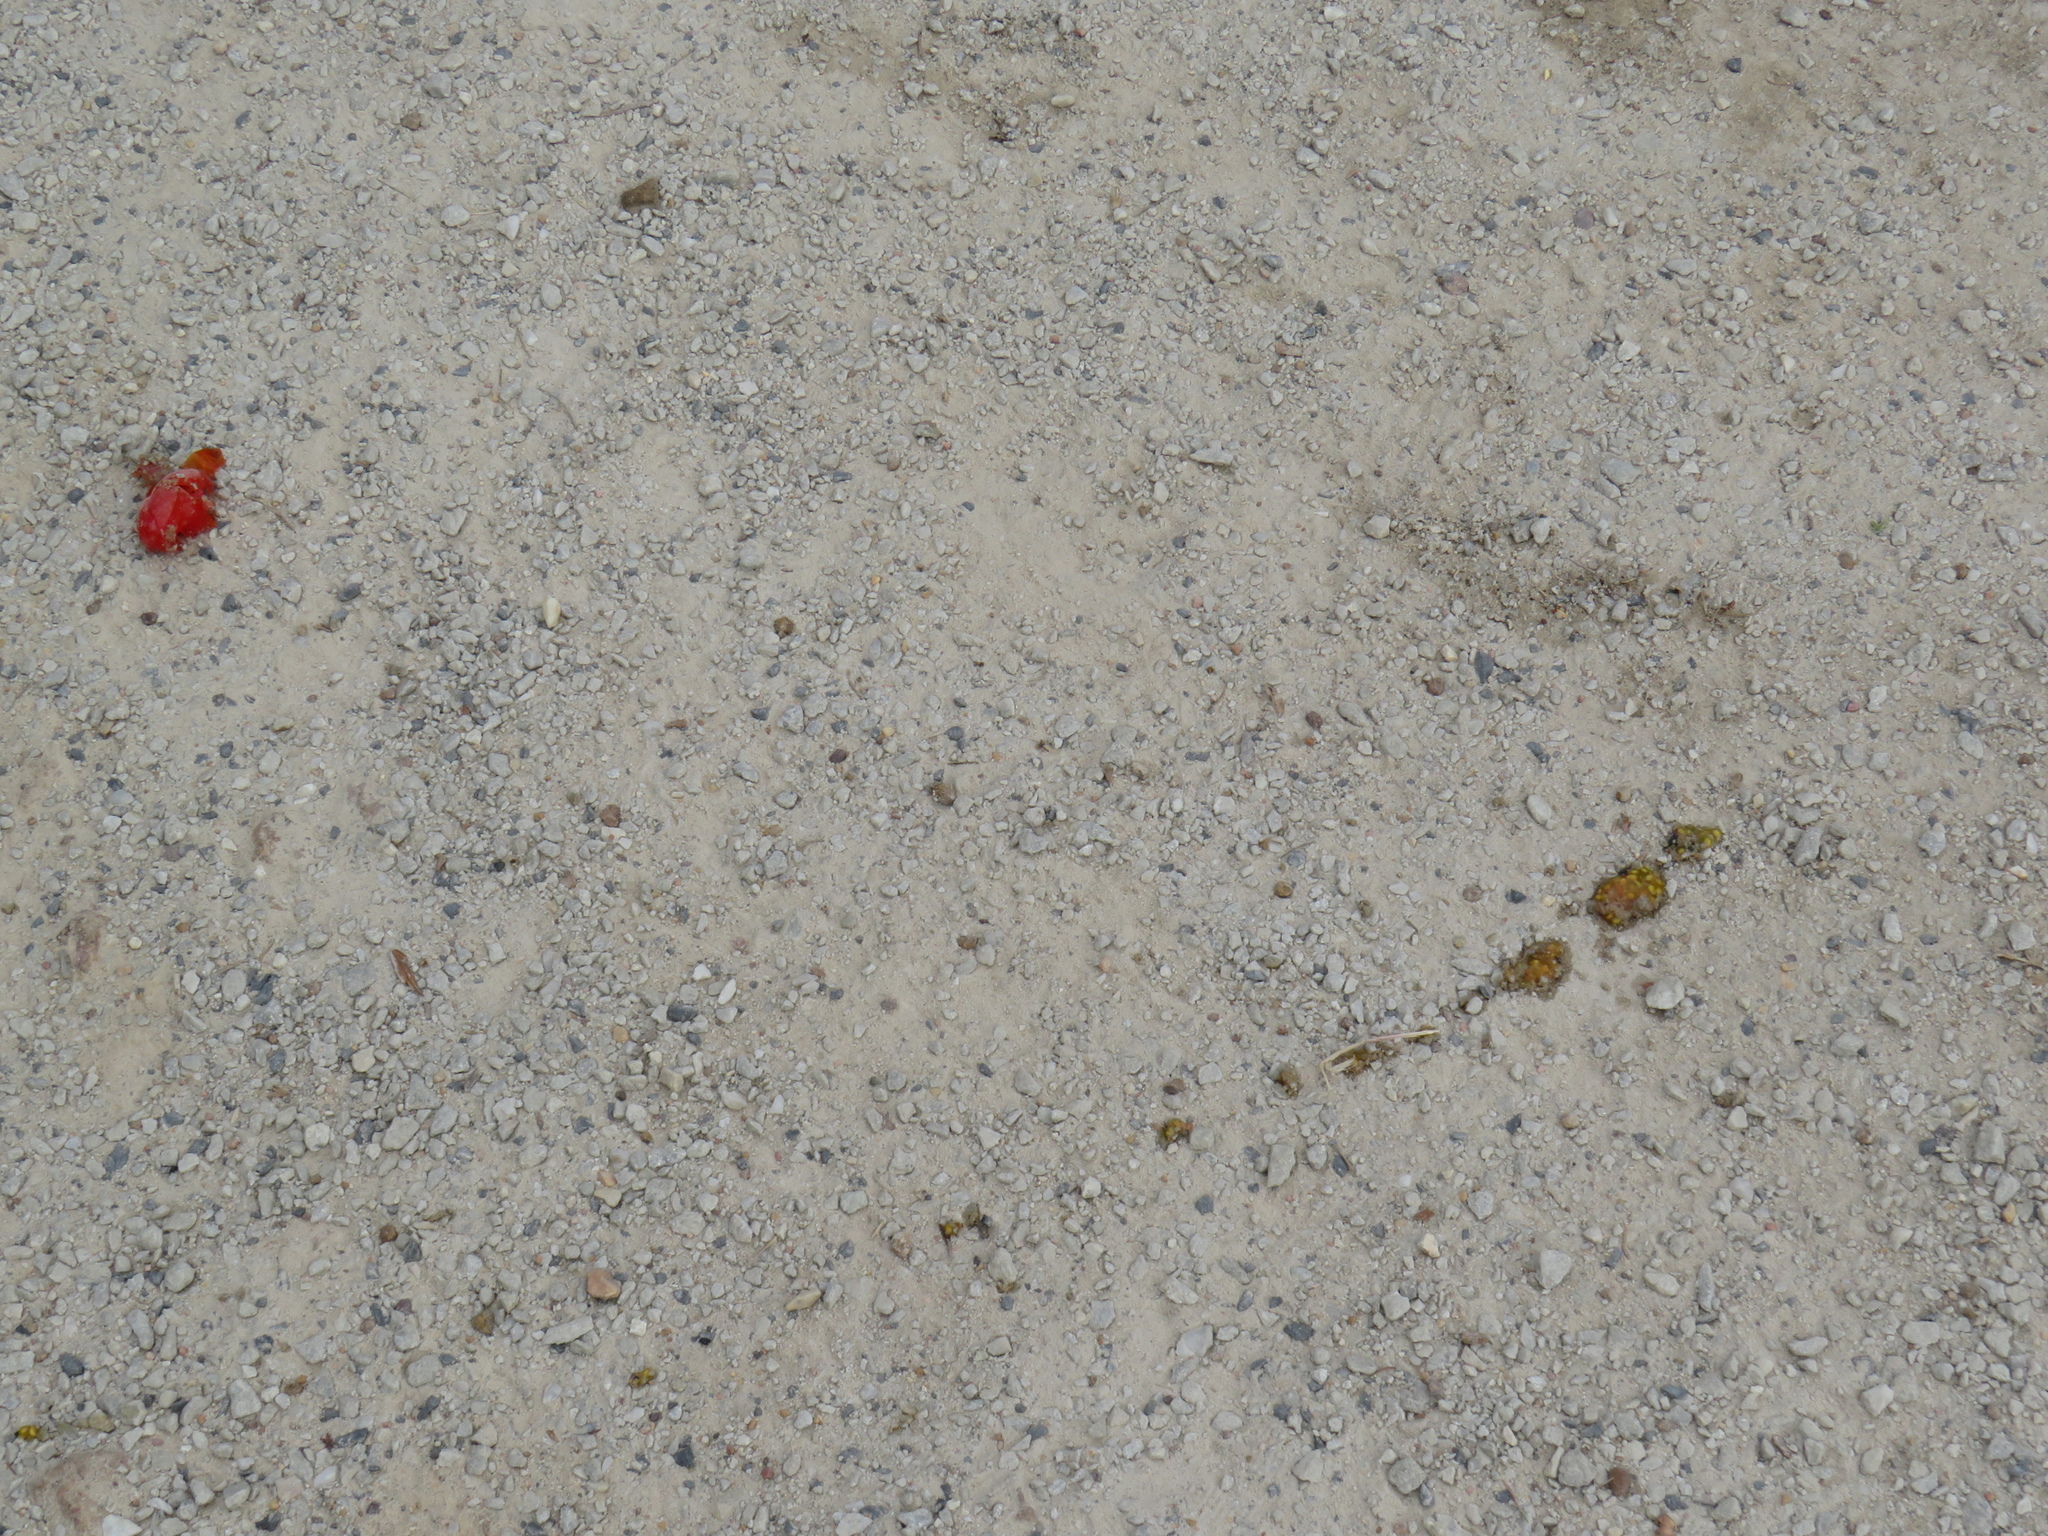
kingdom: Plantae
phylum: Tracheophyta
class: Magnoliopsida
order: Solanales
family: Solanaceae
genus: Solanum
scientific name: Solanum lycopersicum
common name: Garden tomato
